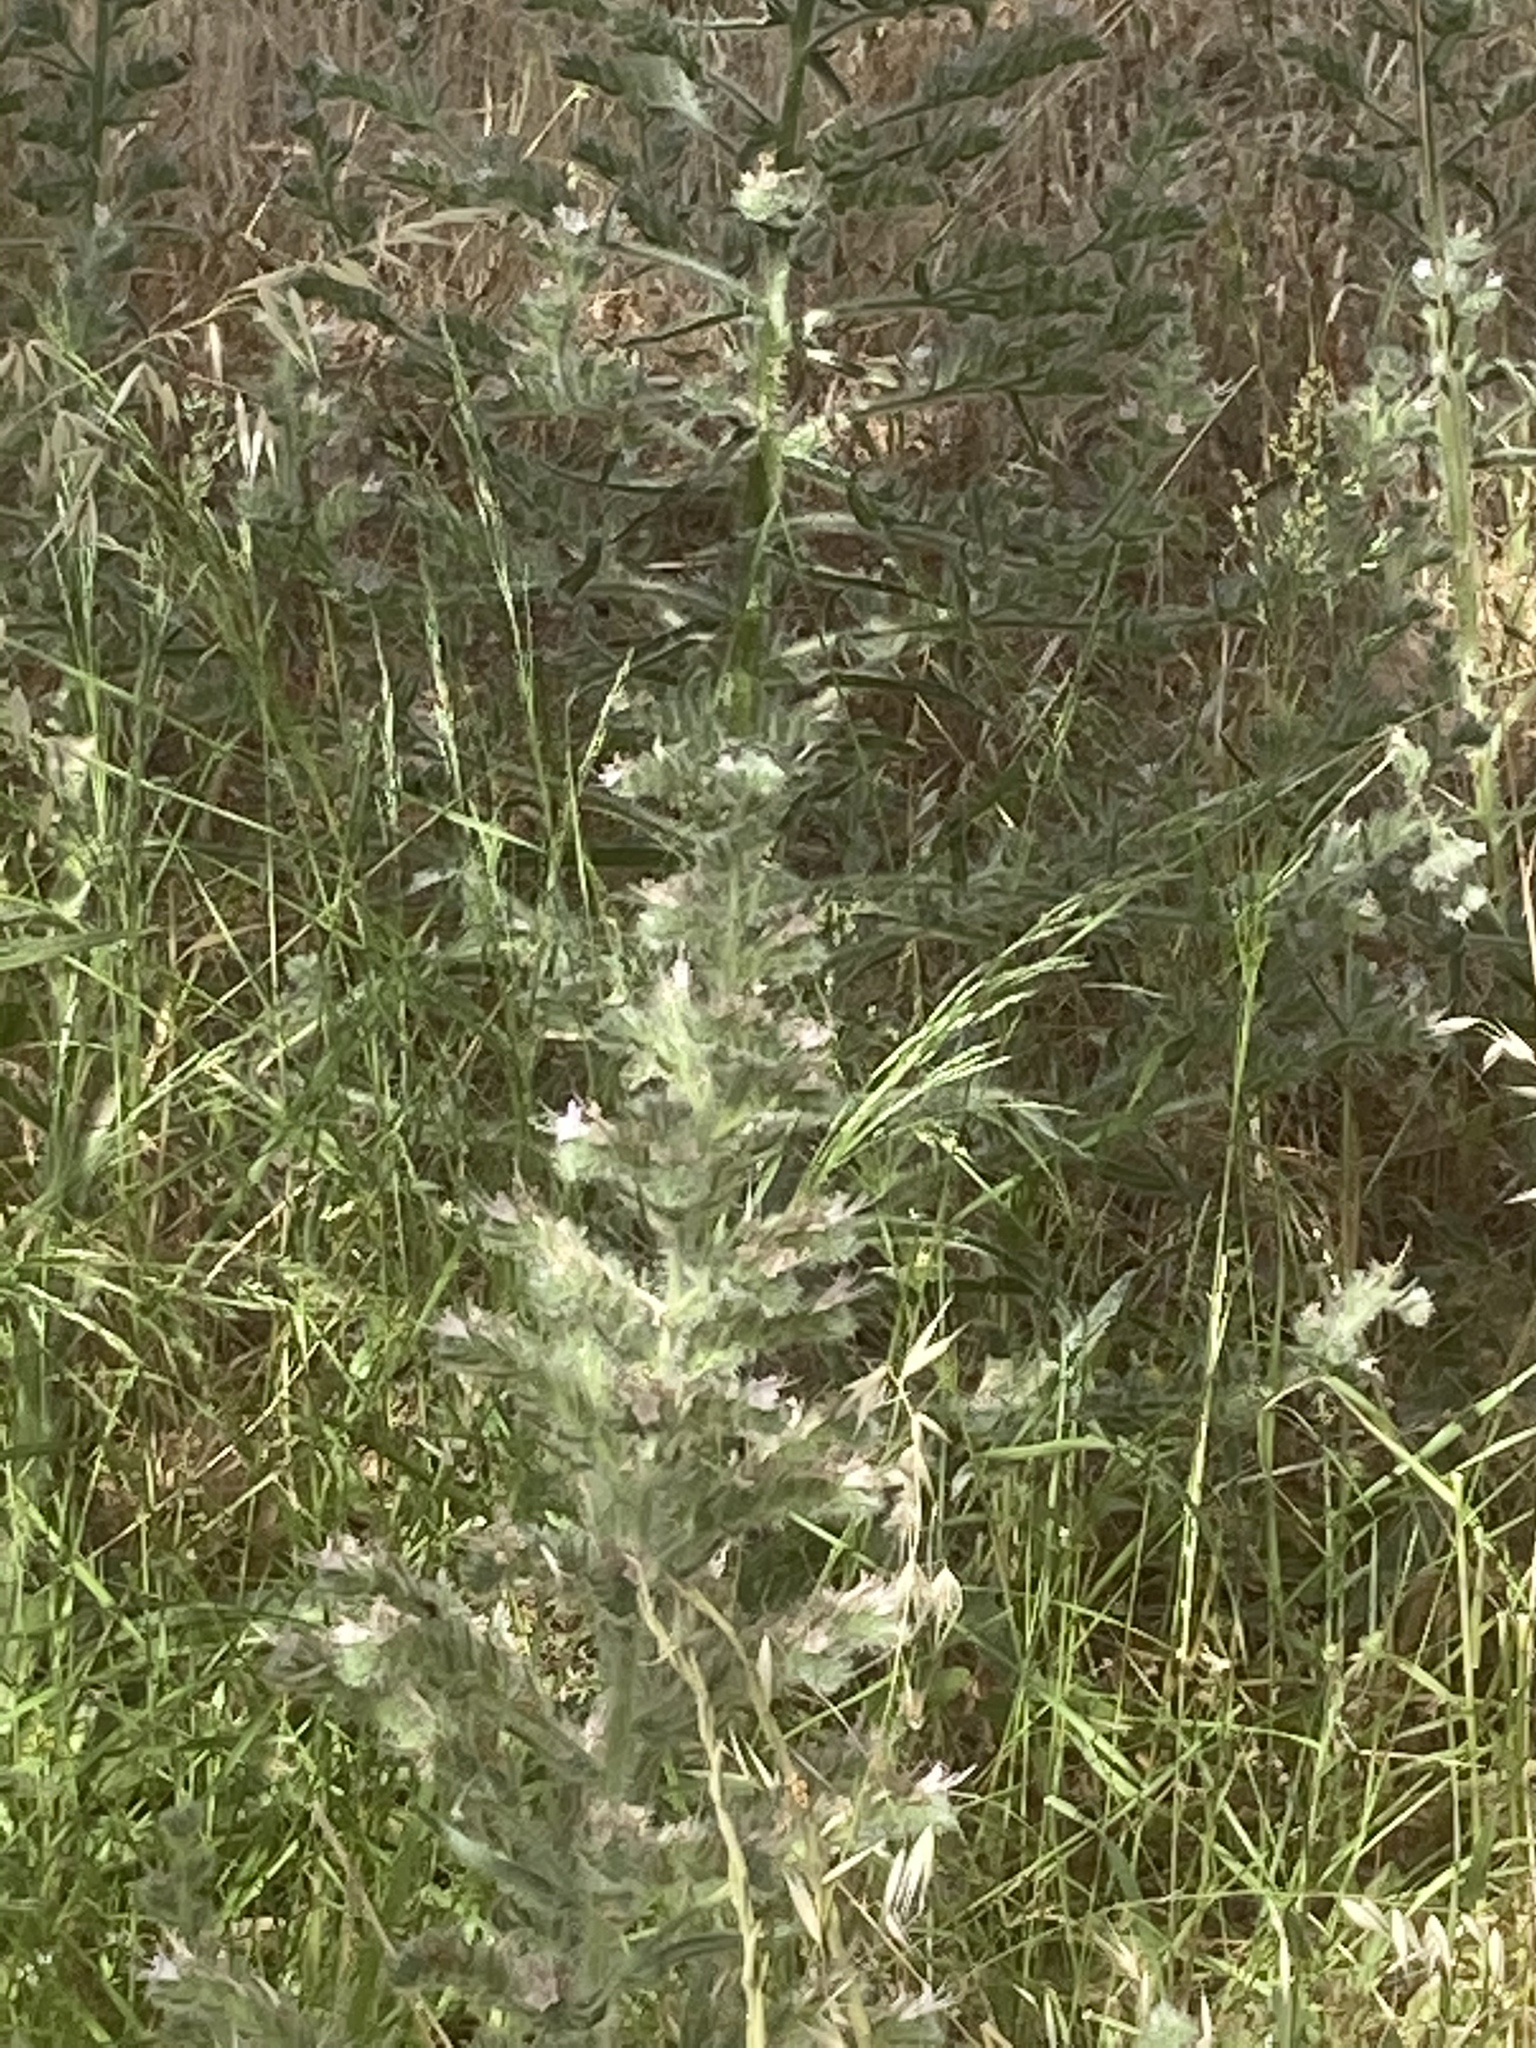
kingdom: Plantae
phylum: Tracheophyta
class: Magnoliopsida
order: Boraginales
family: Boraginaceae
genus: Echium
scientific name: Echium italicum
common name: Italian viper's bugloss
